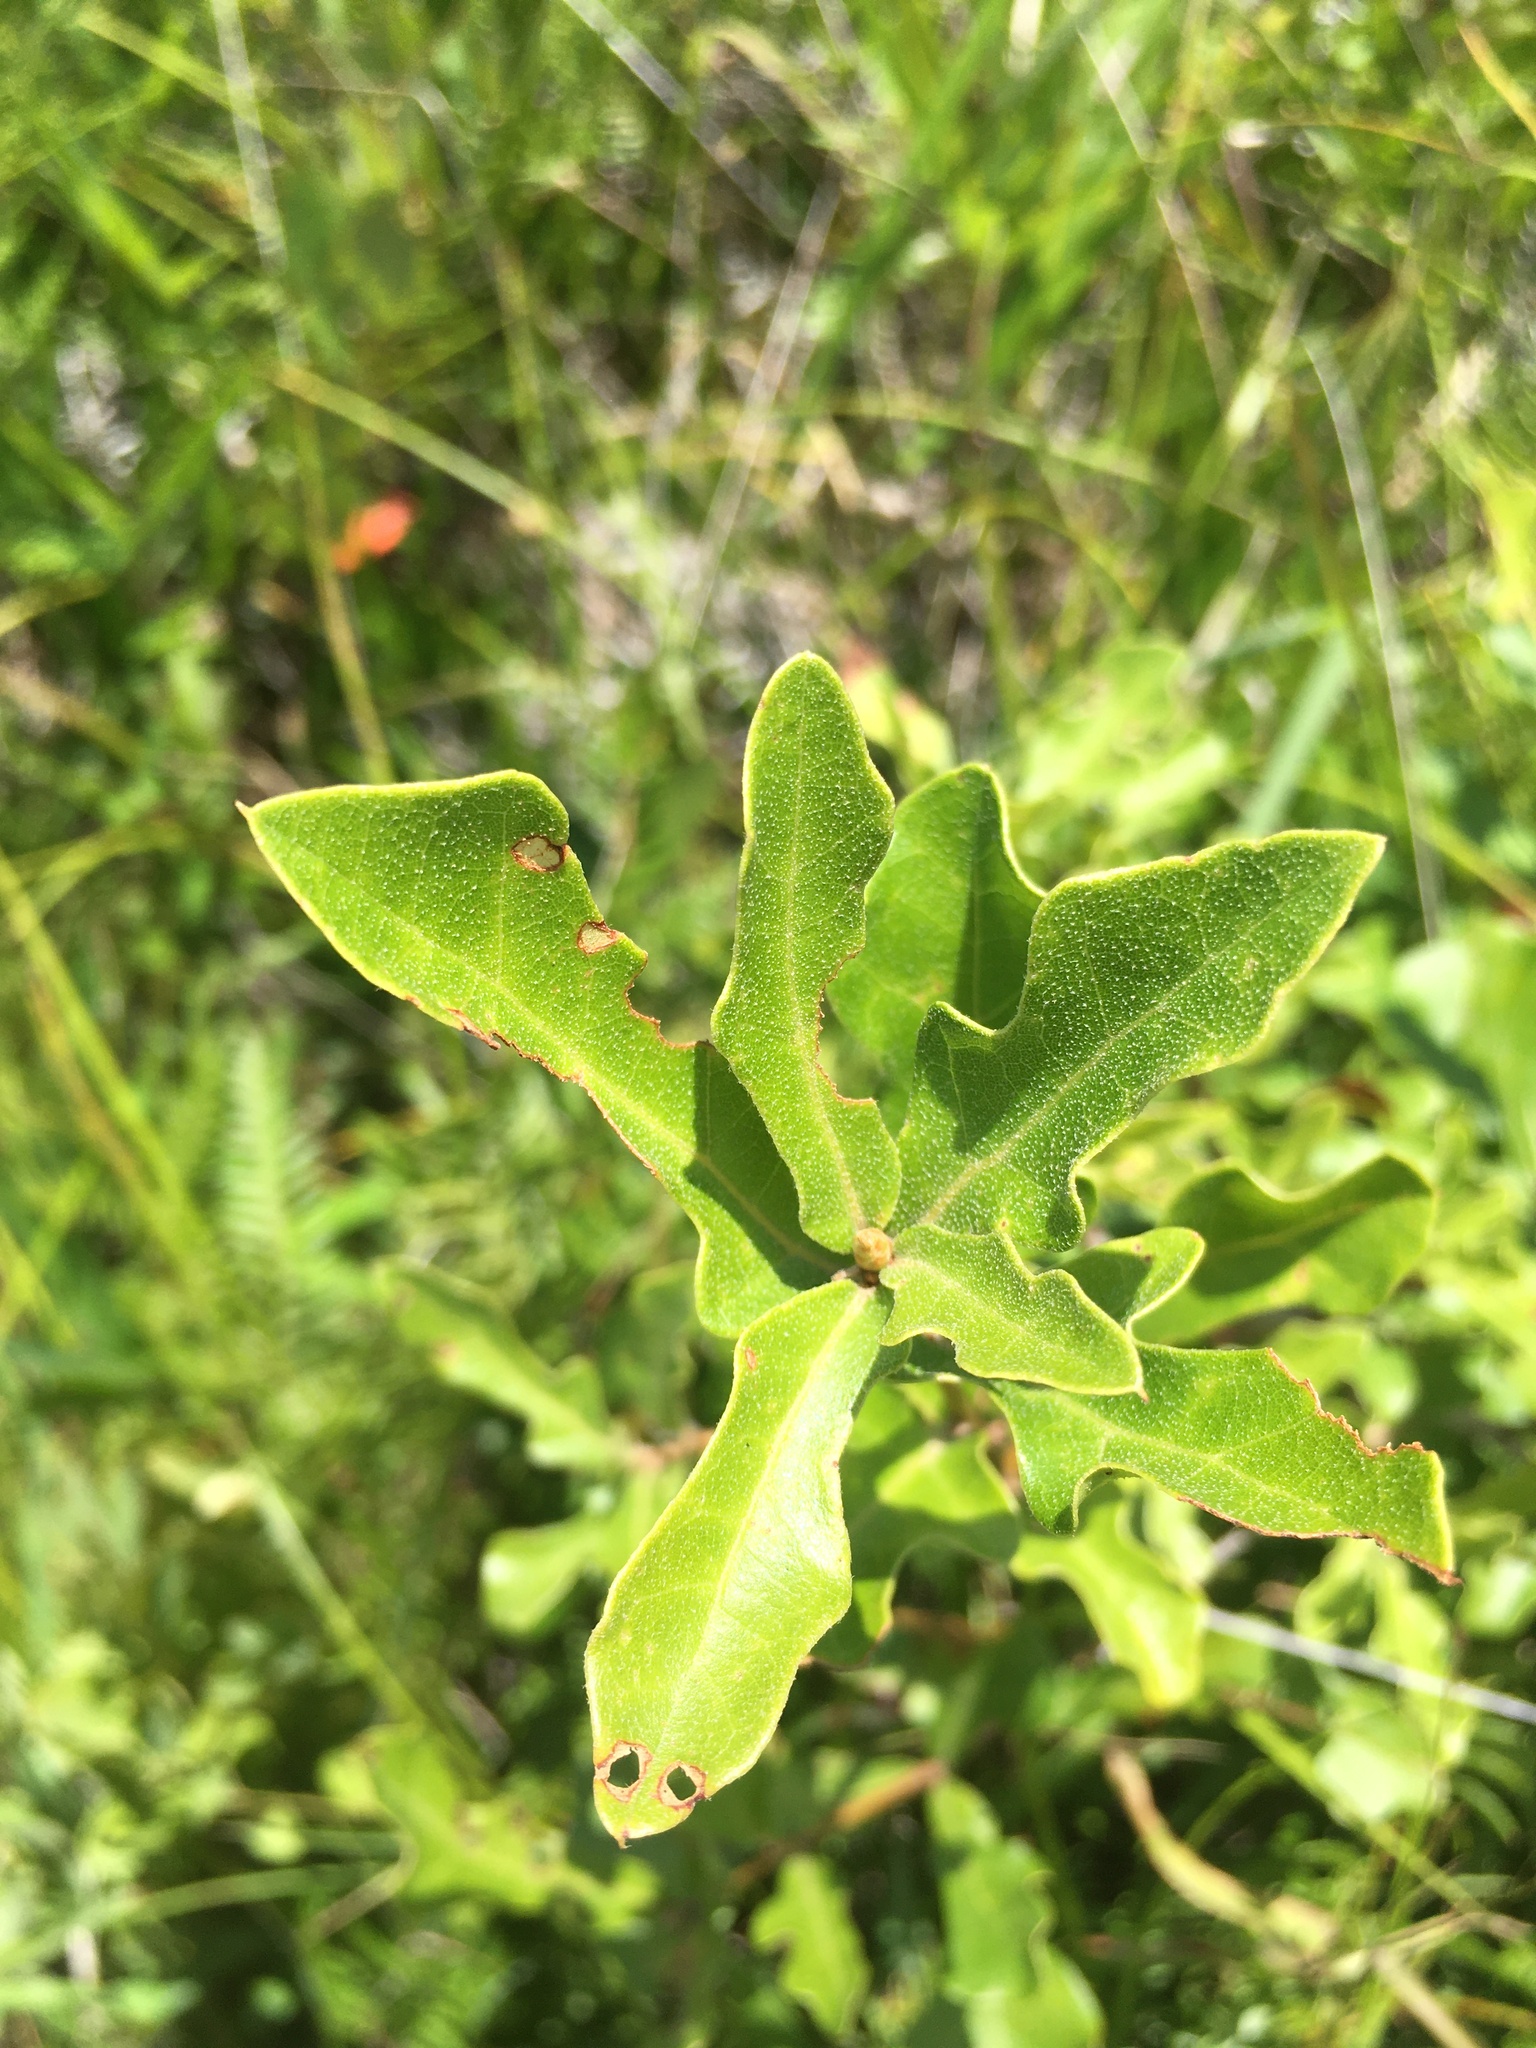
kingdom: Plantae
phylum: Tracheophyta
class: Magnoliopsida
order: Fagales
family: Fagaceae
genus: Quercus
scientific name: Quercus margaretiae
